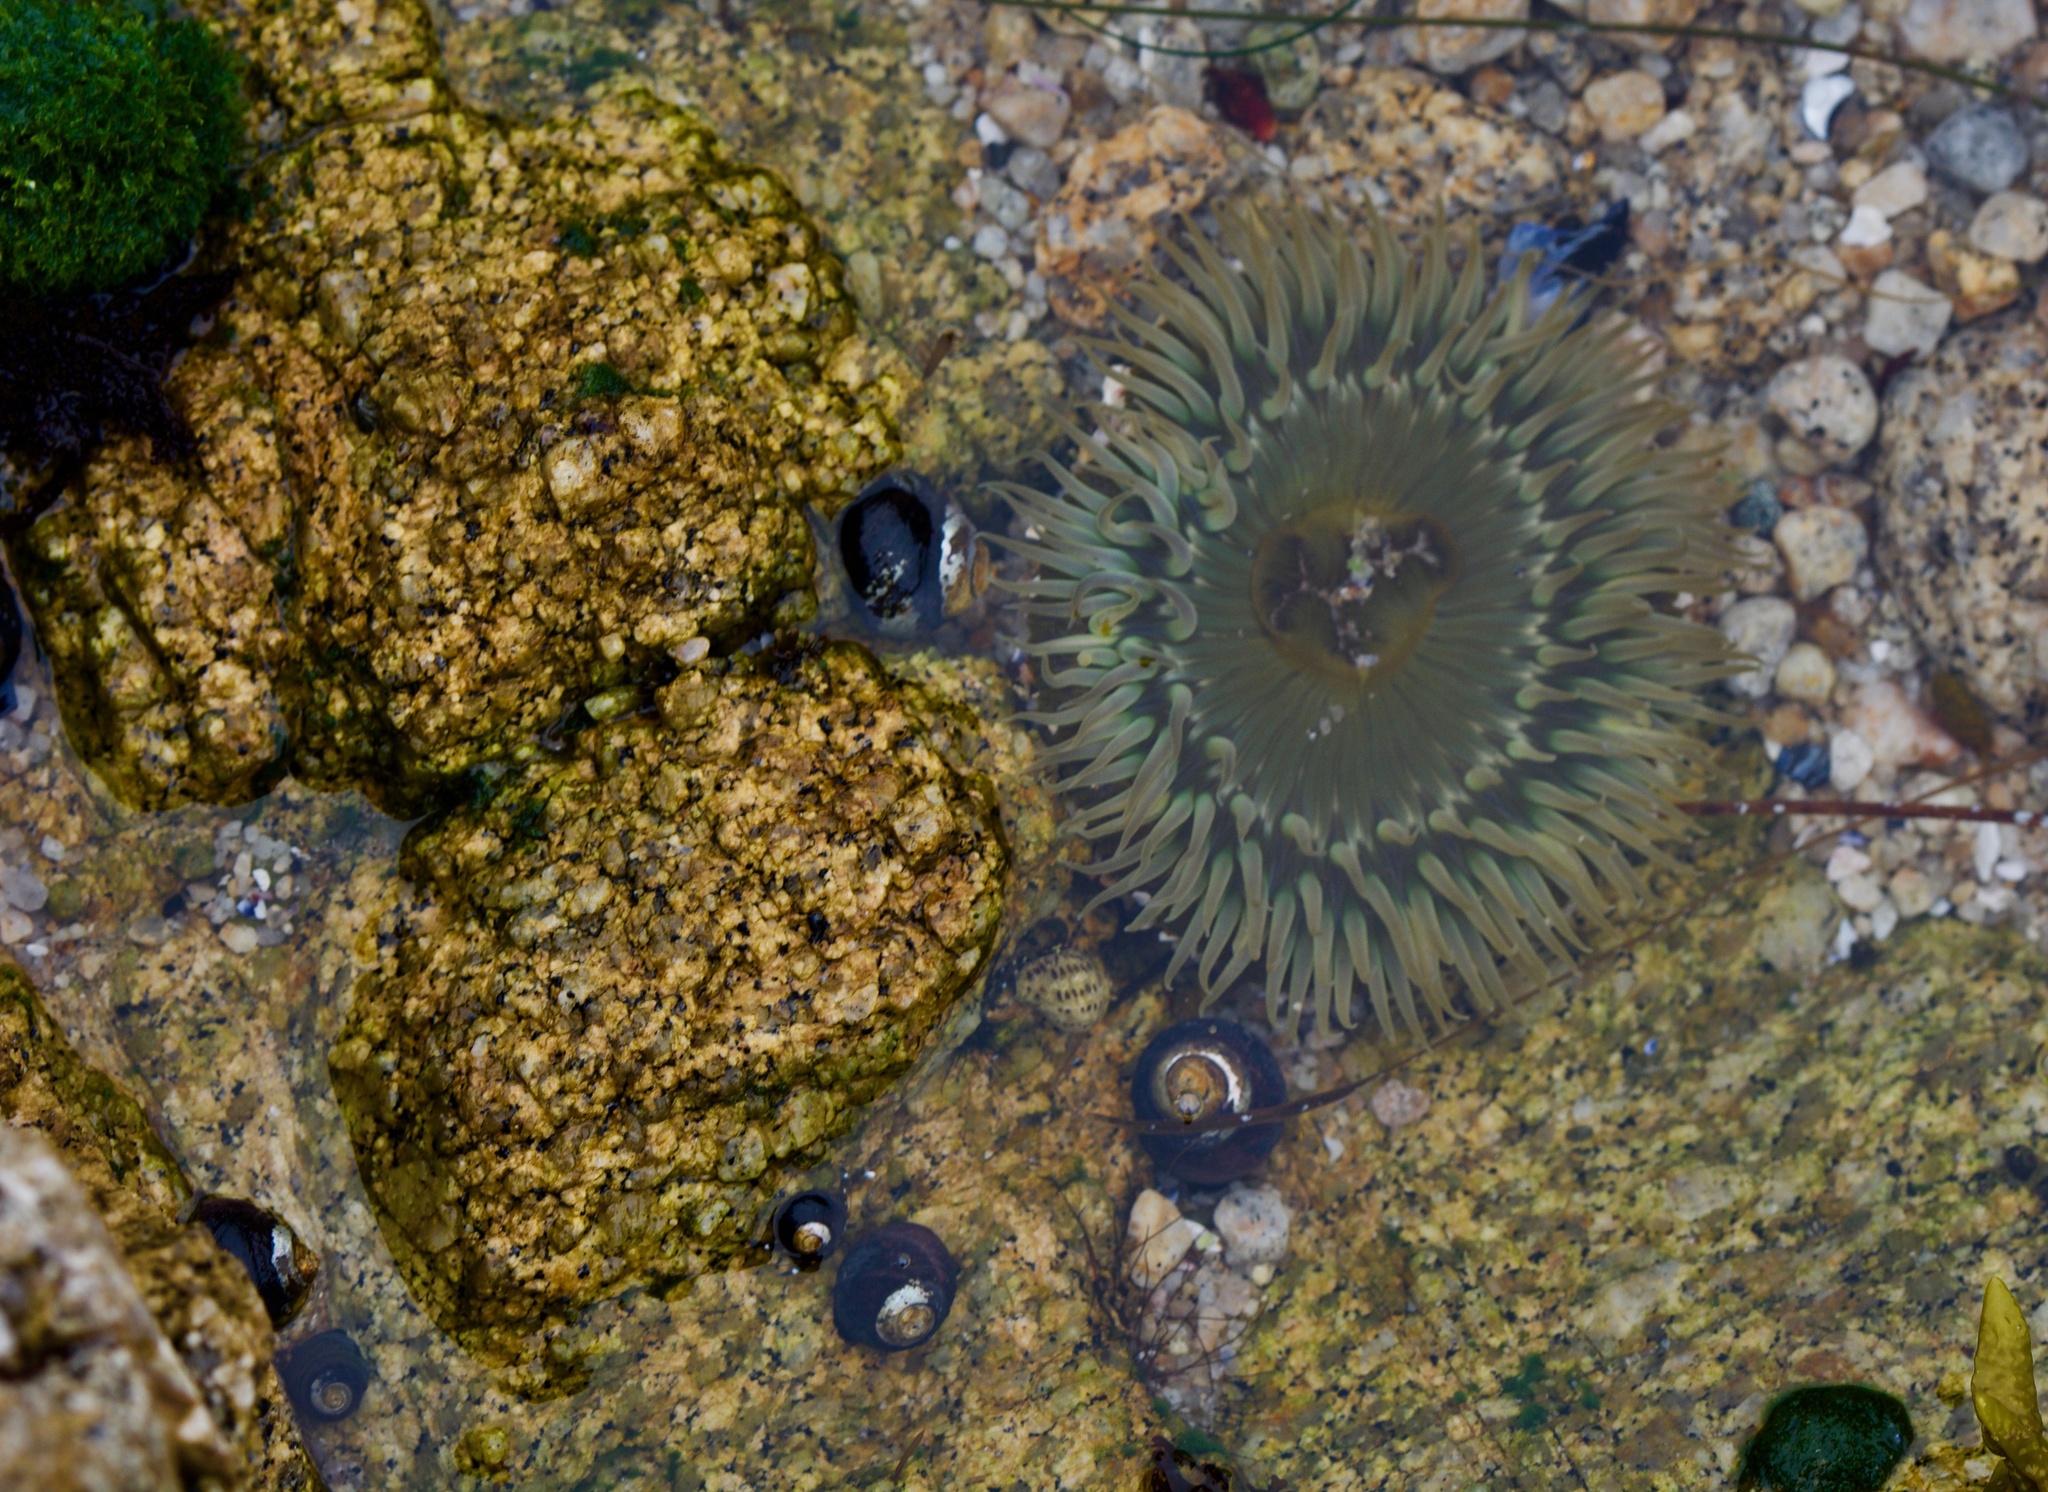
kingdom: Animalia
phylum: Cnidaria
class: Anthozoa
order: Actiniaria
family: Actiniidae
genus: Anthopleura
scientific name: Anthopleura sola
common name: Sun anemone
